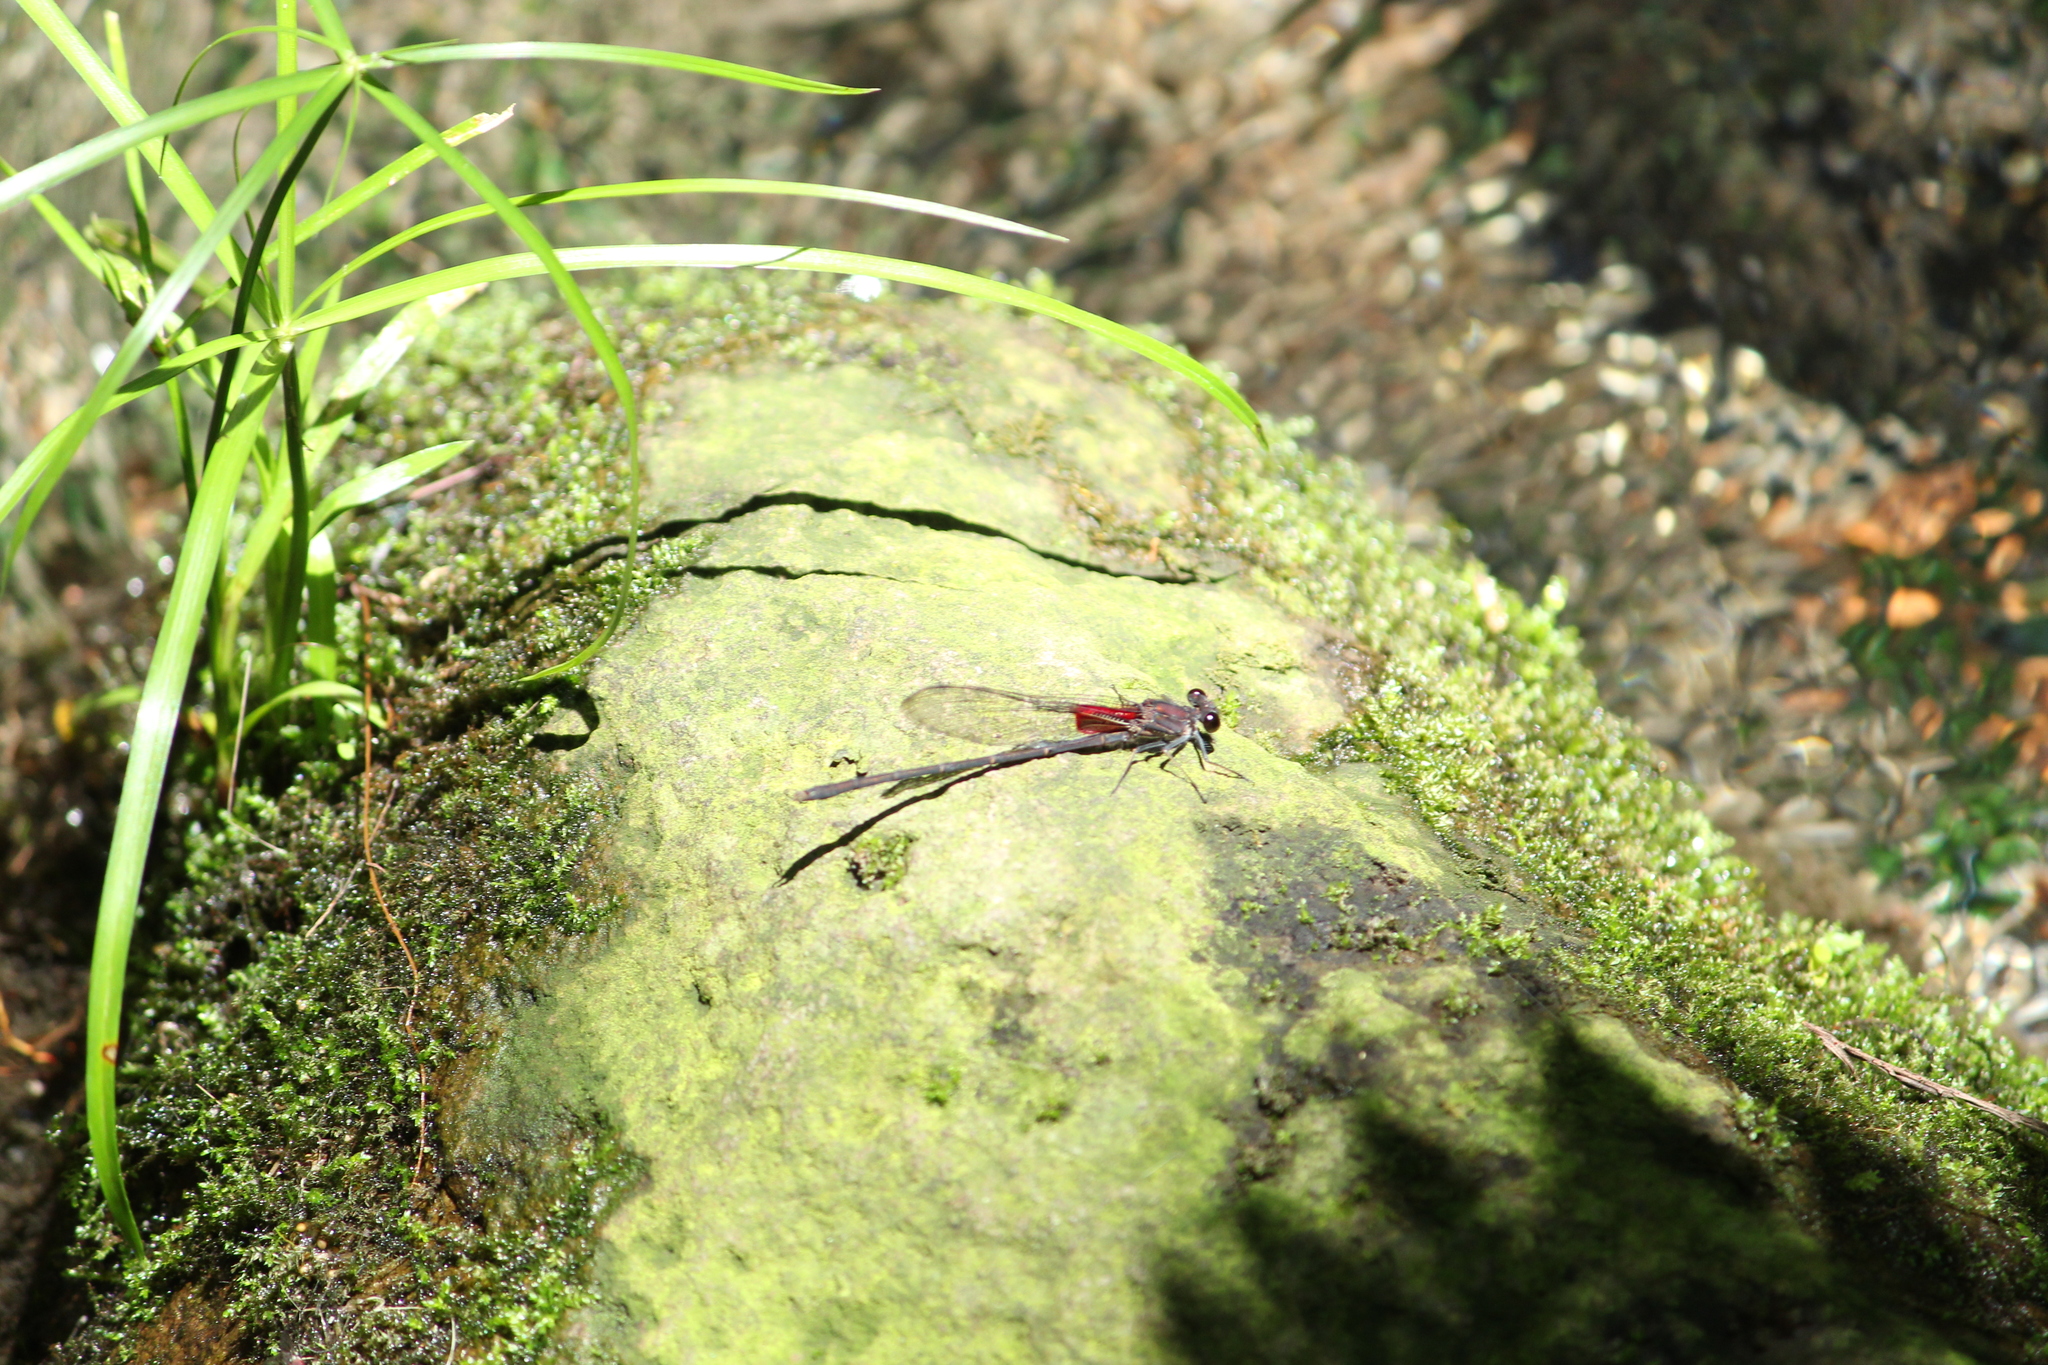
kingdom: Animalia
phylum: Arthropoda
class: Insecta
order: Odonata
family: Calopterygidae
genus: Hetaerina
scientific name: Hetaerina vulnerata
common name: Canyon rubyspot
